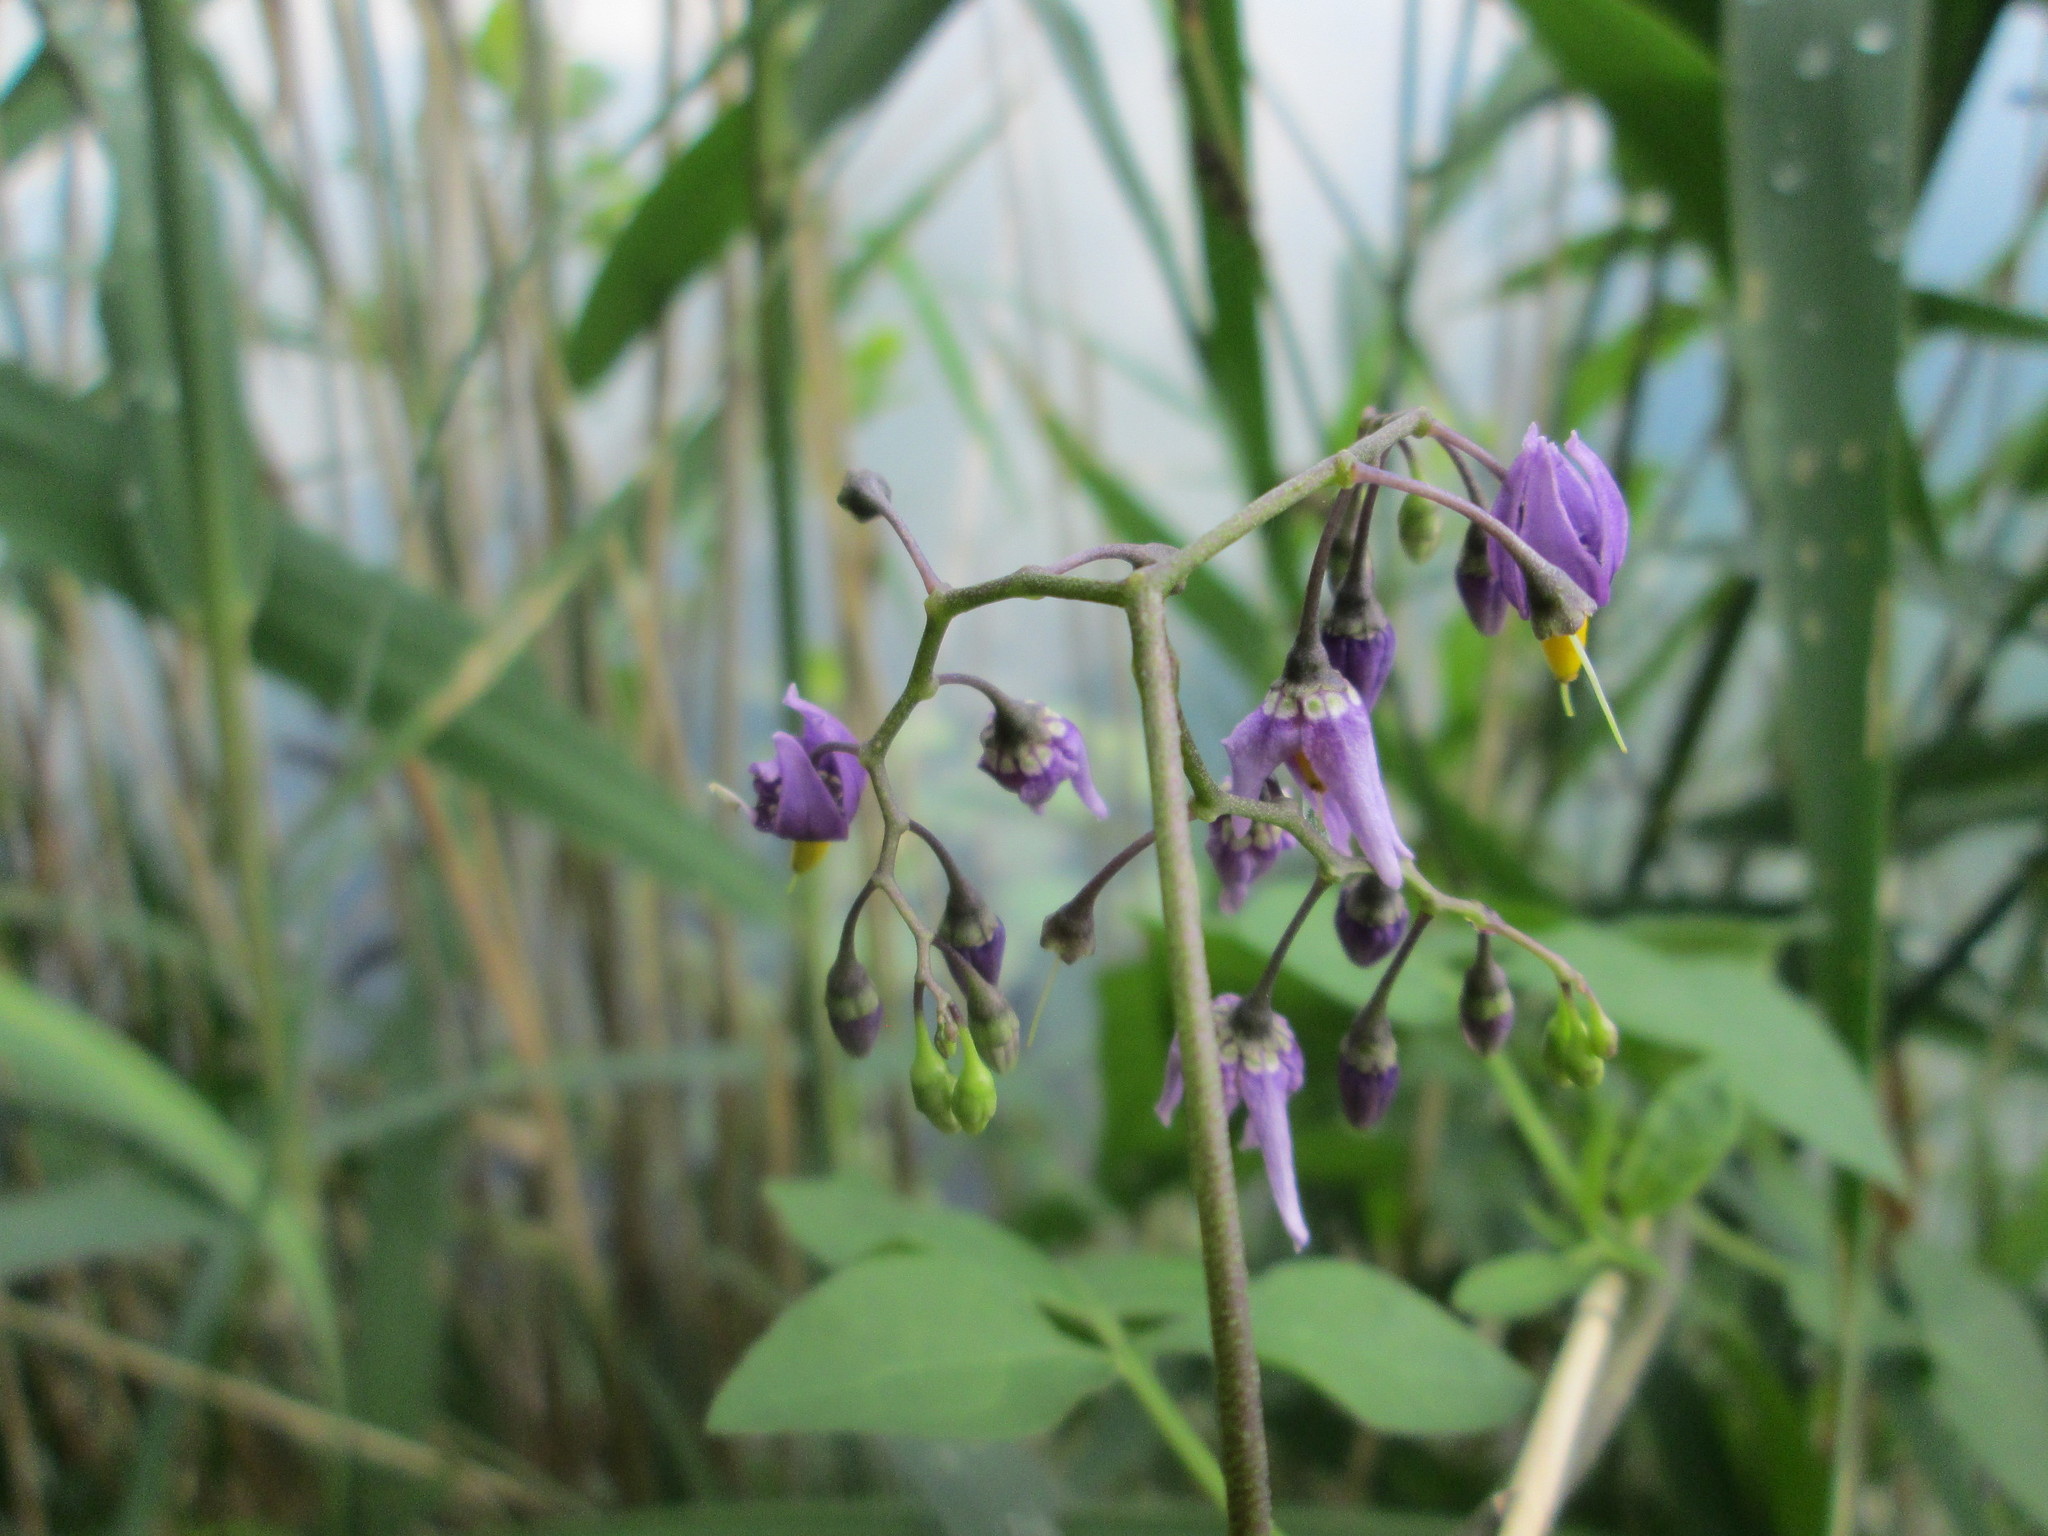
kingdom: Plantae
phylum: Tracheophyta
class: Magnoliopsida
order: Solanales
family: Solanaceae
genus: Solanum
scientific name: Solanum dulcamara
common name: Climbing nightshade
